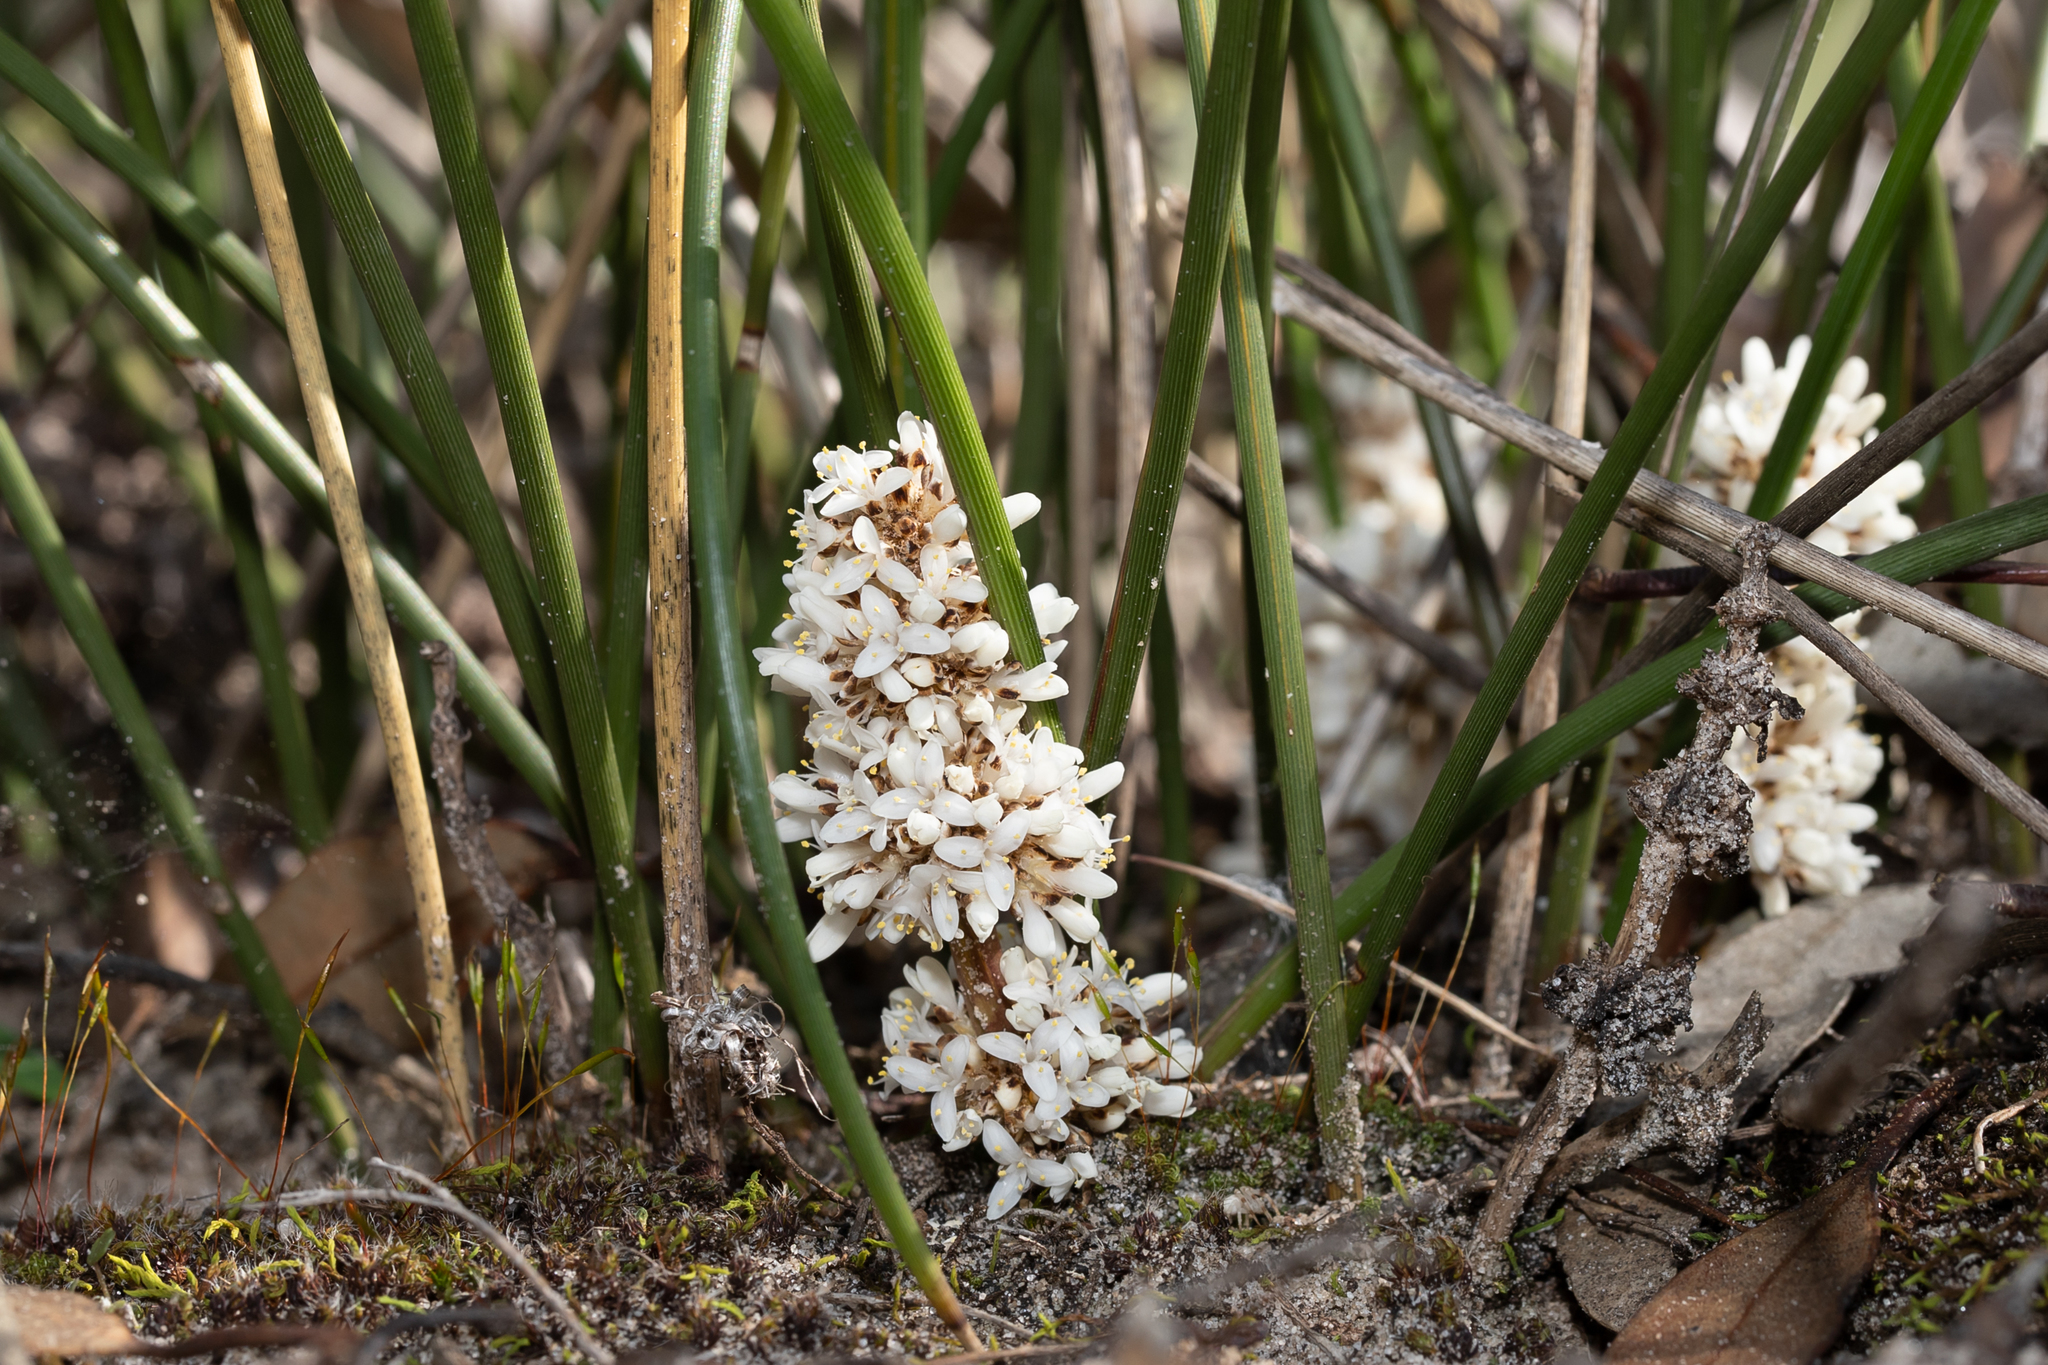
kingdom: Plantae
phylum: Tracheophyta
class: Liliopsida
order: Asparagales
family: Asparagaceae
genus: Lomandra
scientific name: Lomandra juncea
